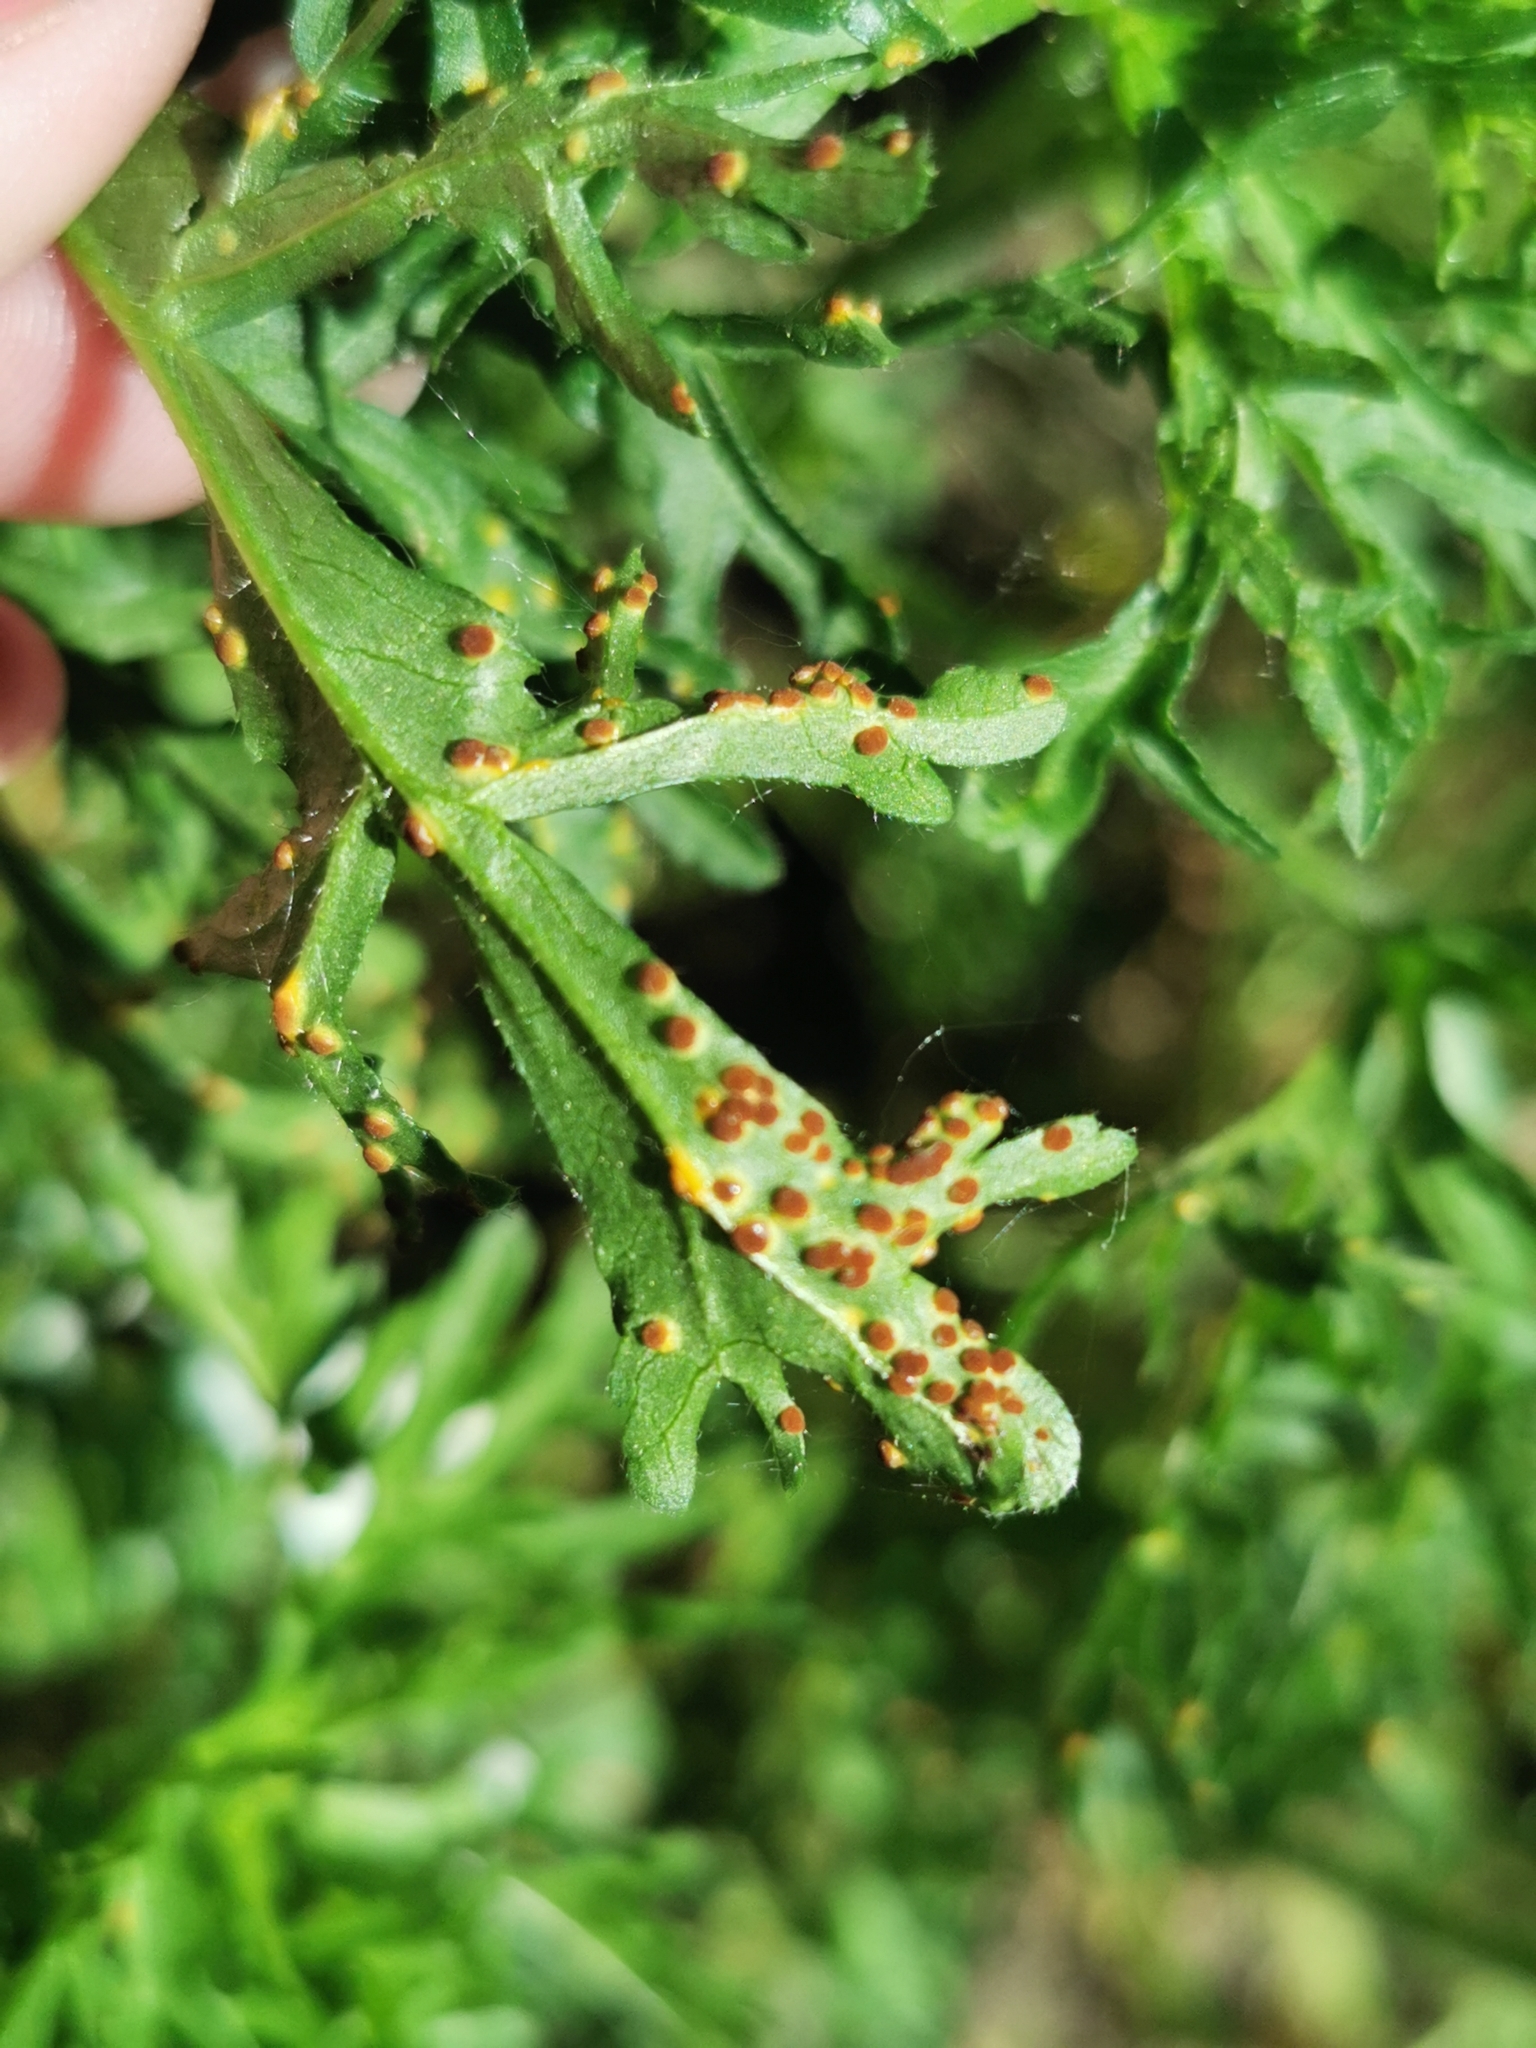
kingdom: Fungi
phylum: Basidiomycota
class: Pucciniomycetes
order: Pucciniales
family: Pucciniaceae
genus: Puccinia
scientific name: Puccinia malvacearum
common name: Hollyhock rust
